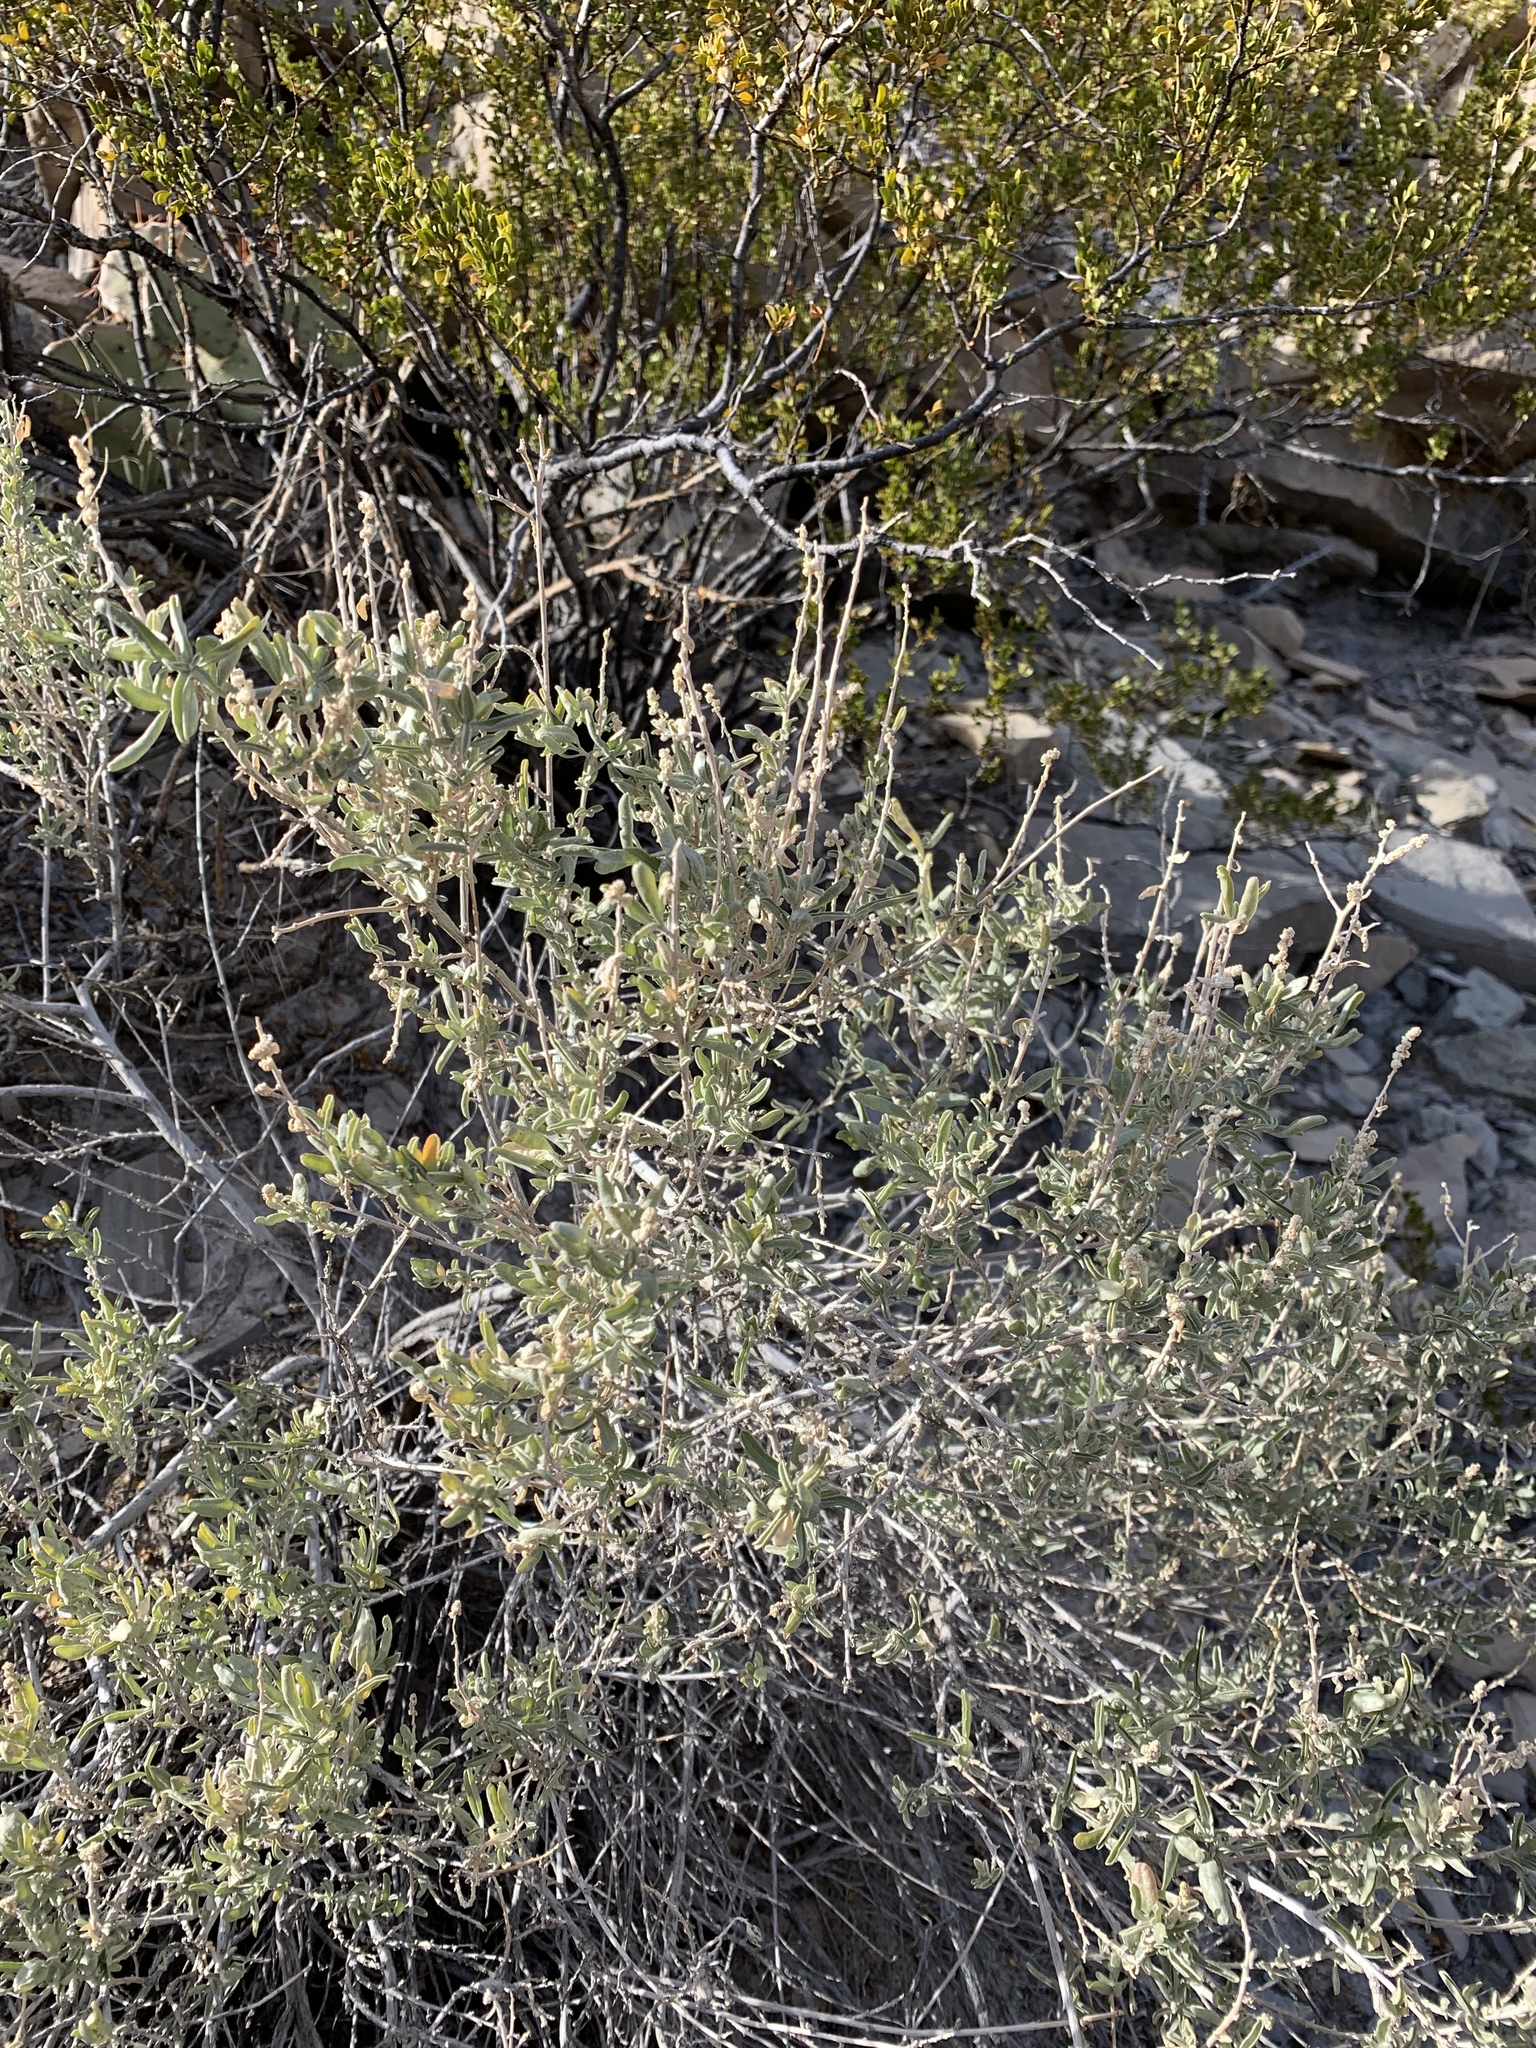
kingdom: Plantae
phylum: Tracheophyta
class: Magnoliopsida
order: Caryophyllales
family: Amaranthaceae
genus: Atriplex
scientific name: Atriplex canescens
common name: Four-wing saltbush
